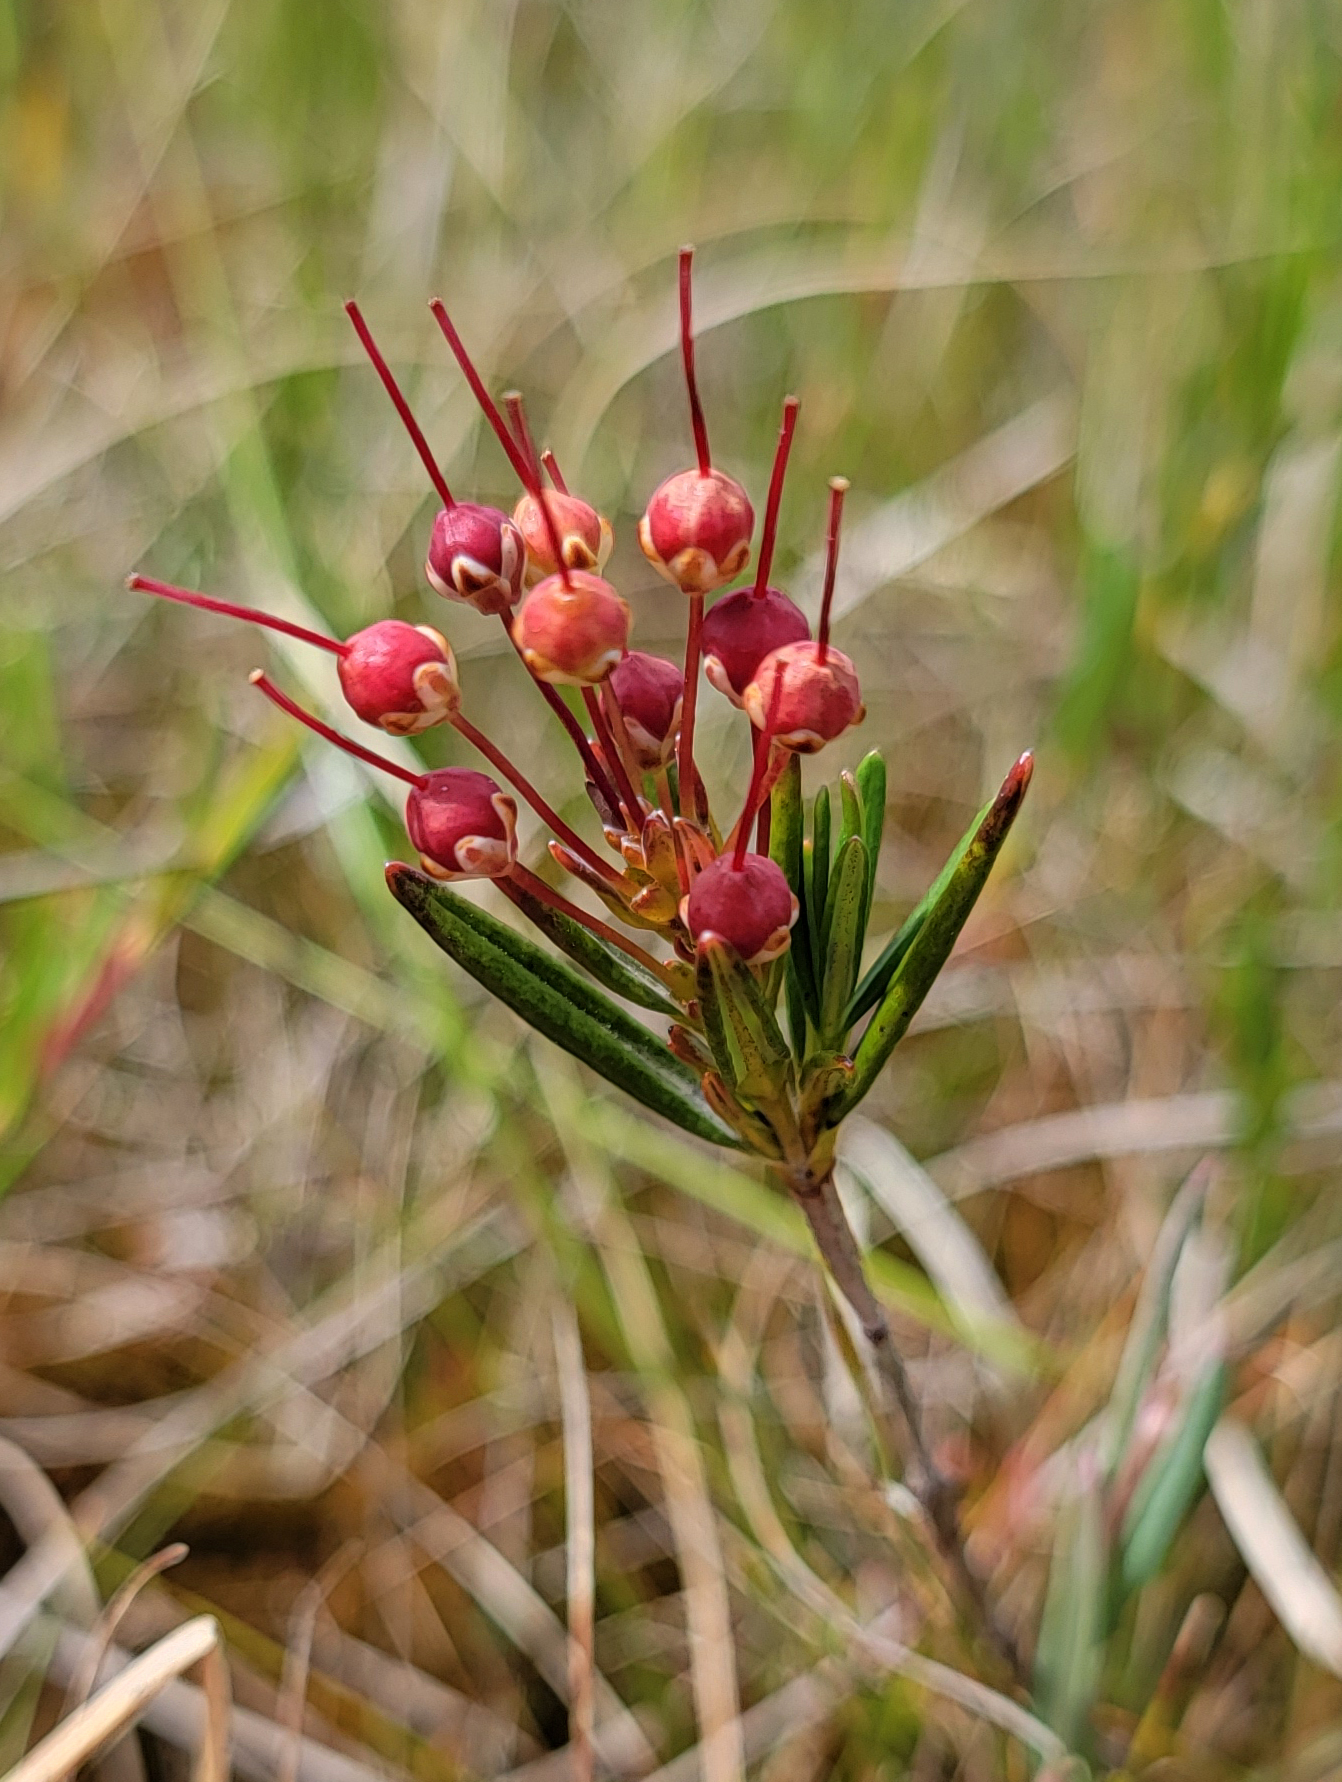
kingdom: Plantae
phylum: Tracheophyta
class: Magnoliopsida
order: Ericales
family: Ericaceae
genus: Kalmia
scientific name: Kalmia polifolia
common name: Bog-laurel
